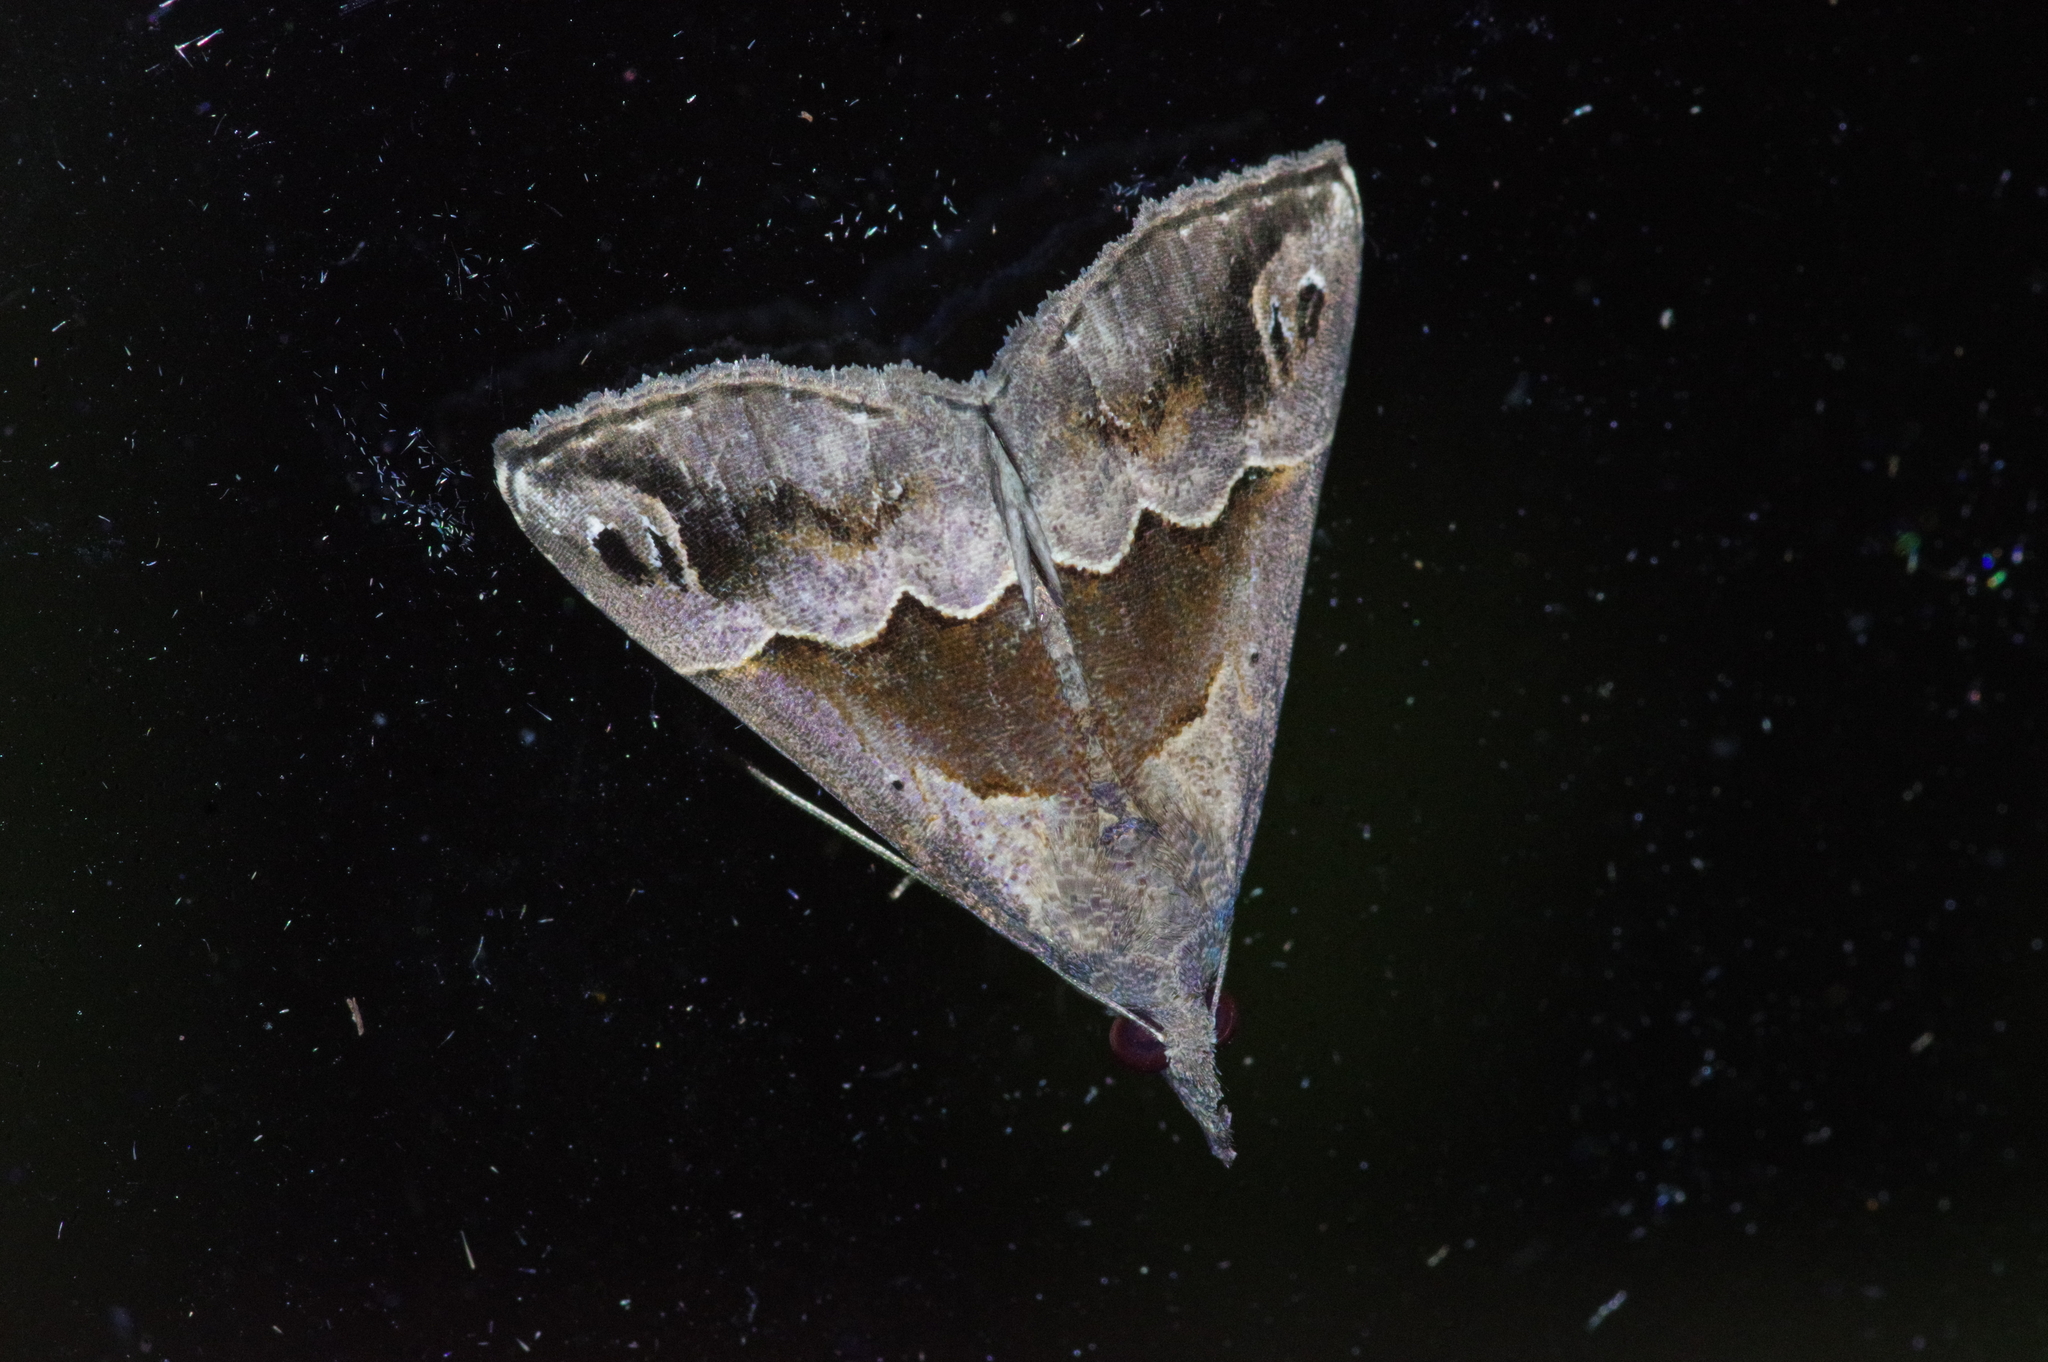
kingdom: Animalia
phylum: Arthropoda
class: Insecta
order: Lepidoptera
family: Erebidae
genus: Hypena
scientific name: Hypena gonospilalis
